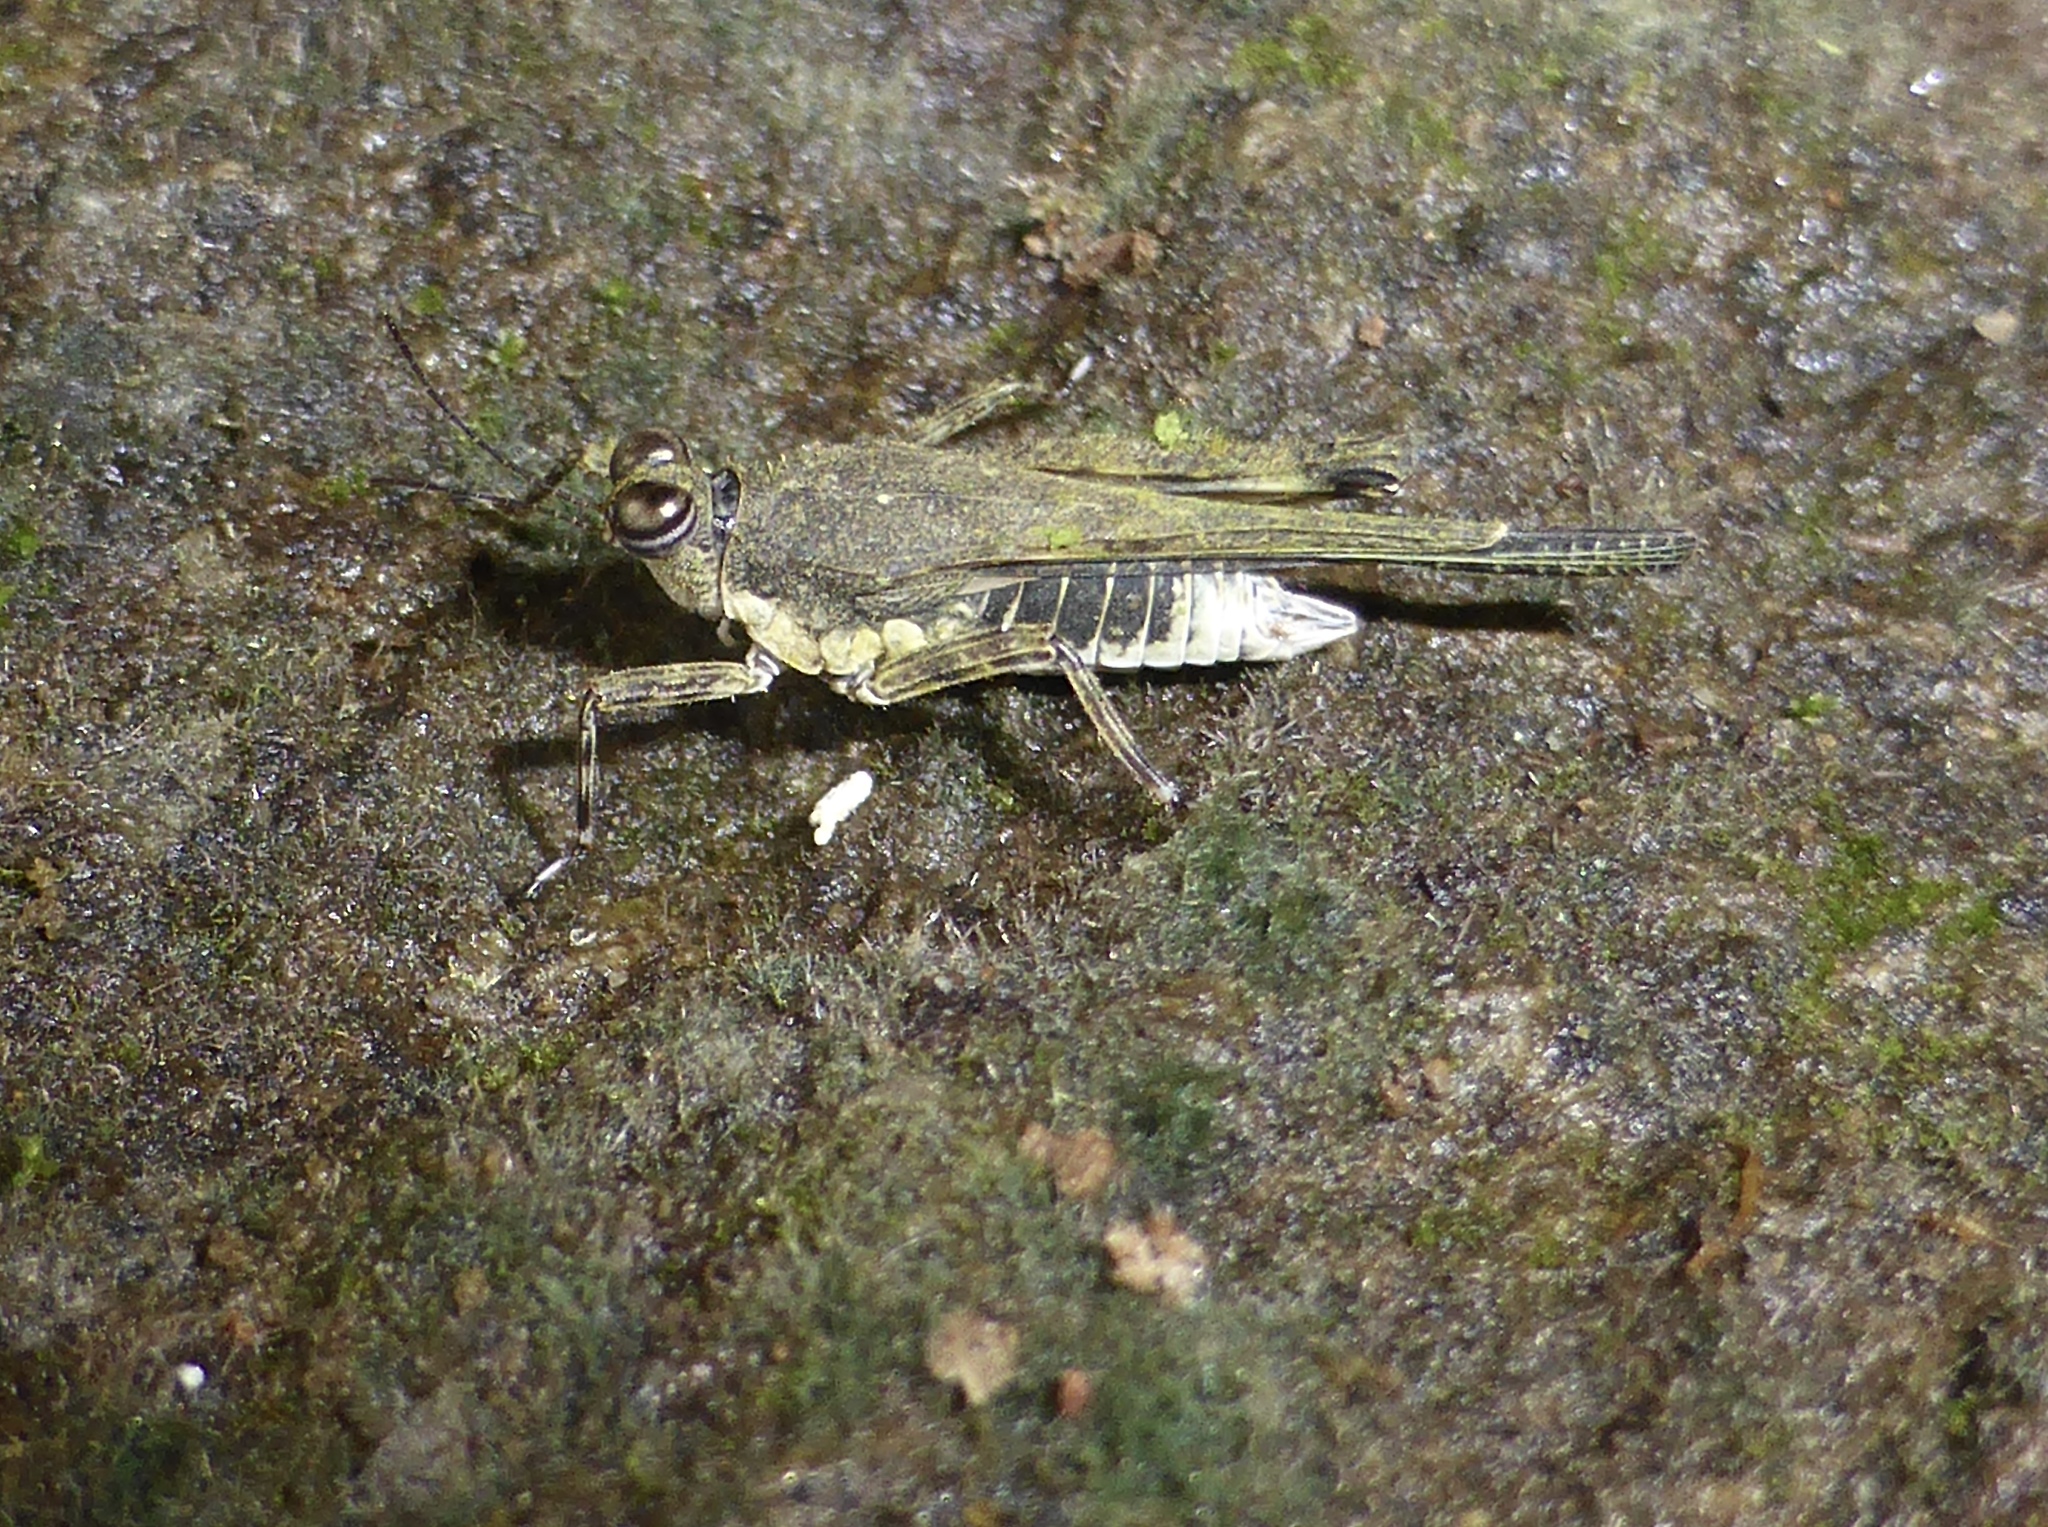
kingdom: Animalia
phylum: Arthropoda
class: Insecta
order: Orthoptera
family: Tetrigidae
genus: Systolederus
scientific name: Systolederus carli
